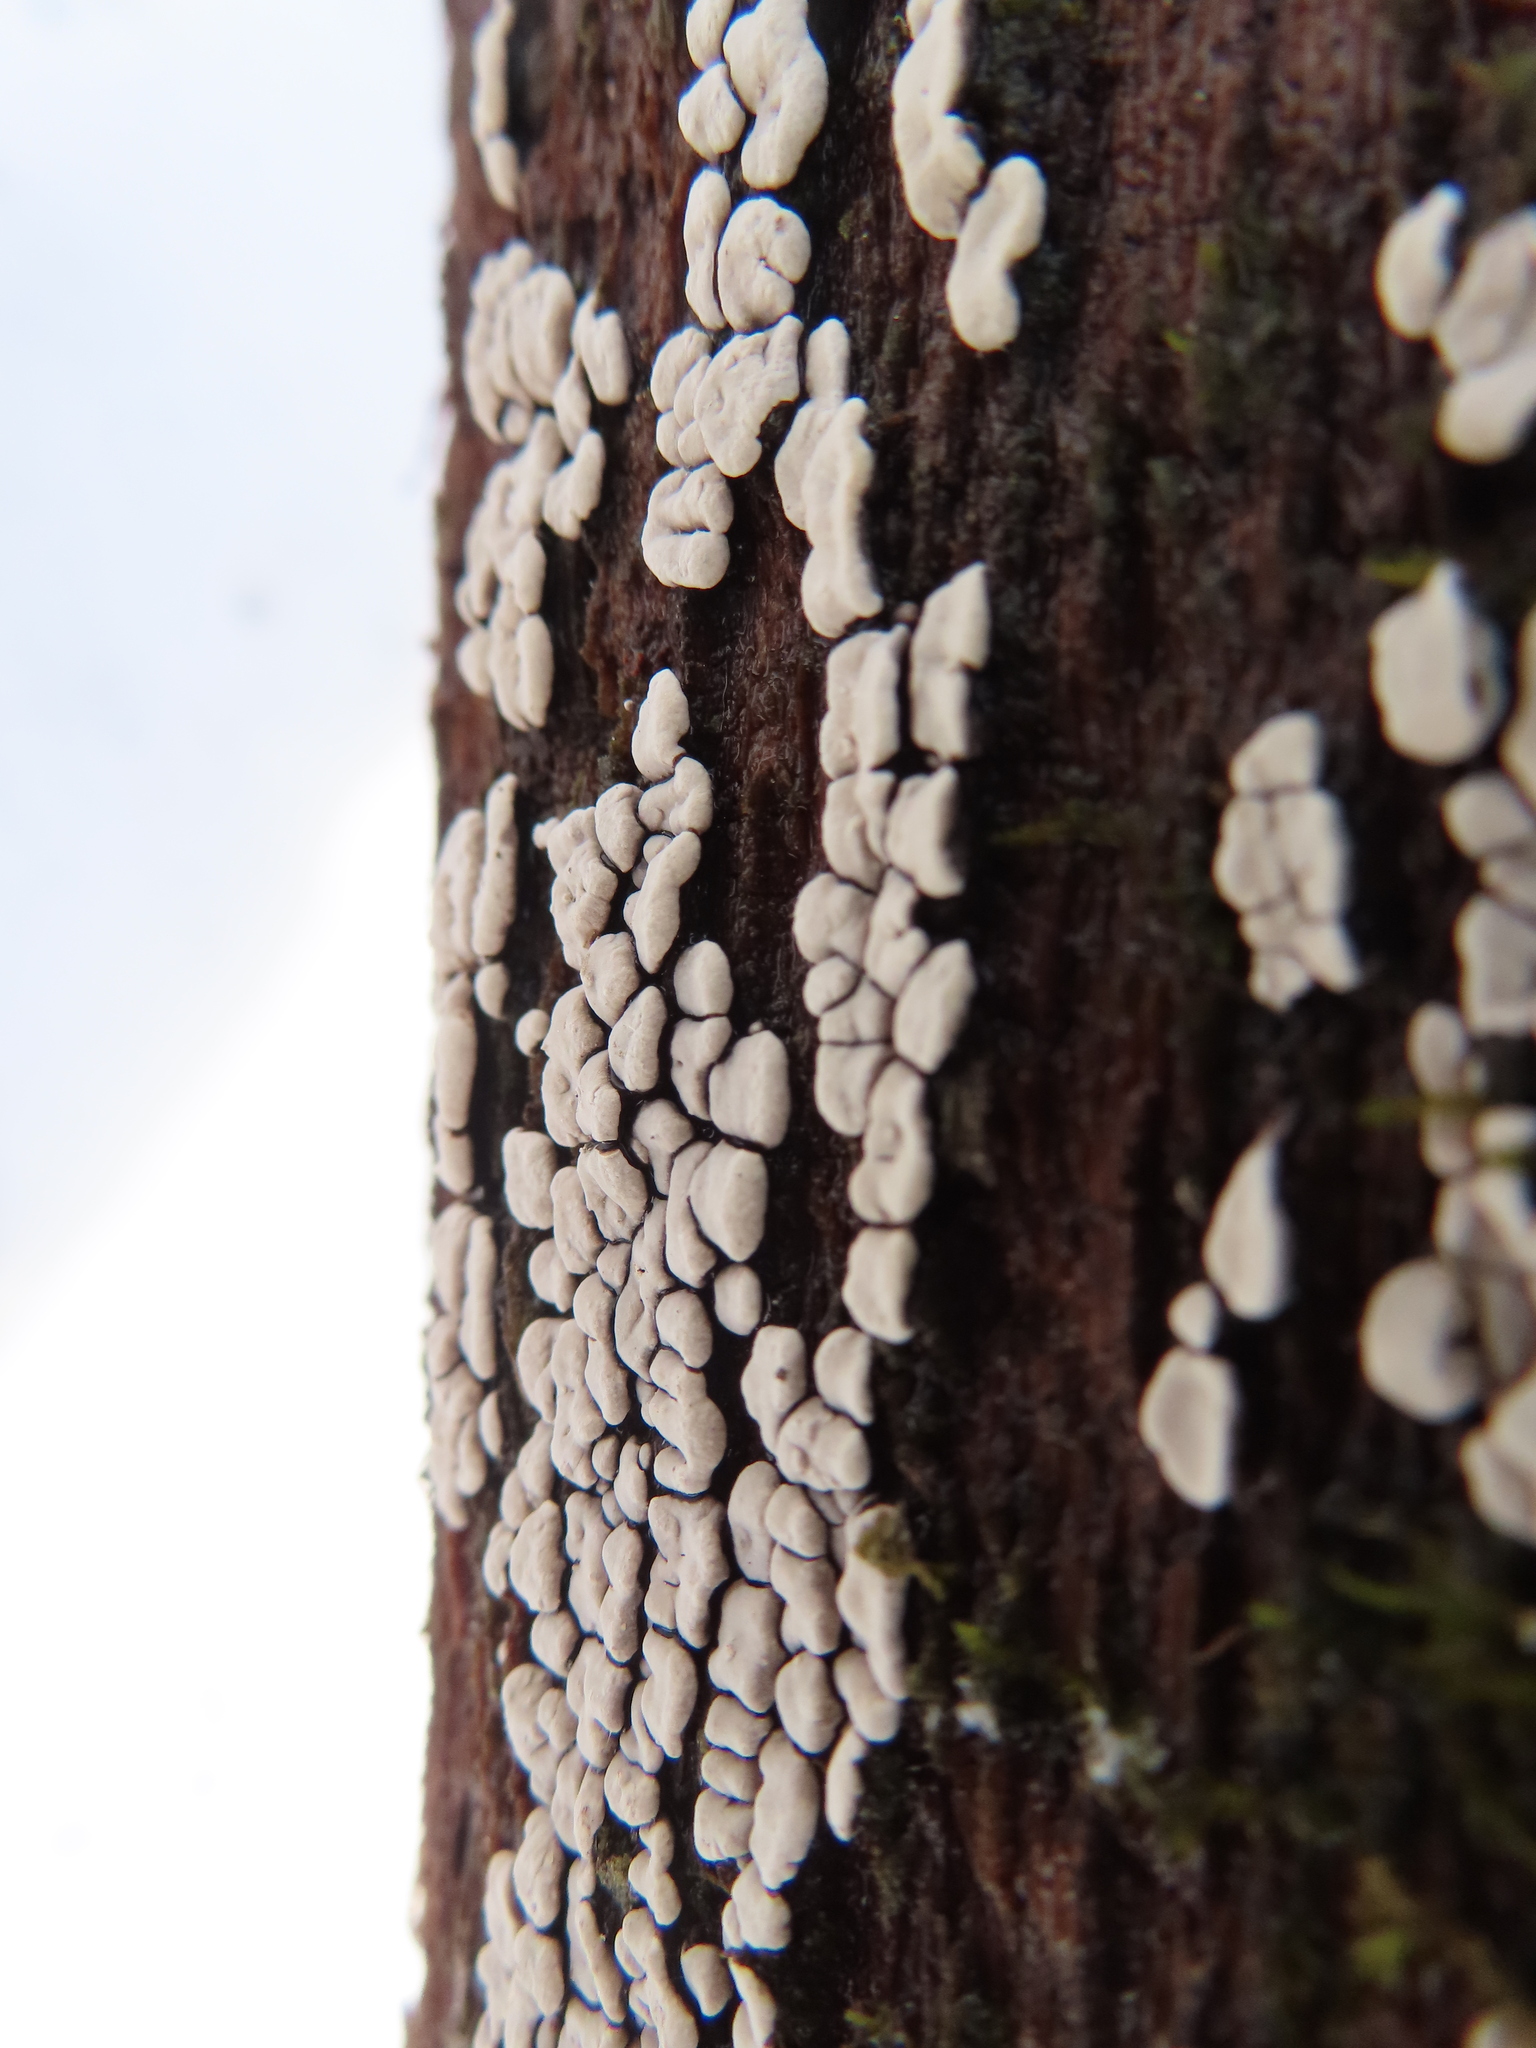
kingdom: Fungi
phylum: Basidiomycota
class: Agaricomycetes
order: Russulales
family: Stereaceae
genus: Xylobolus
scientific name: Xylobolus frustulatus
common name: Ceramic parchment
